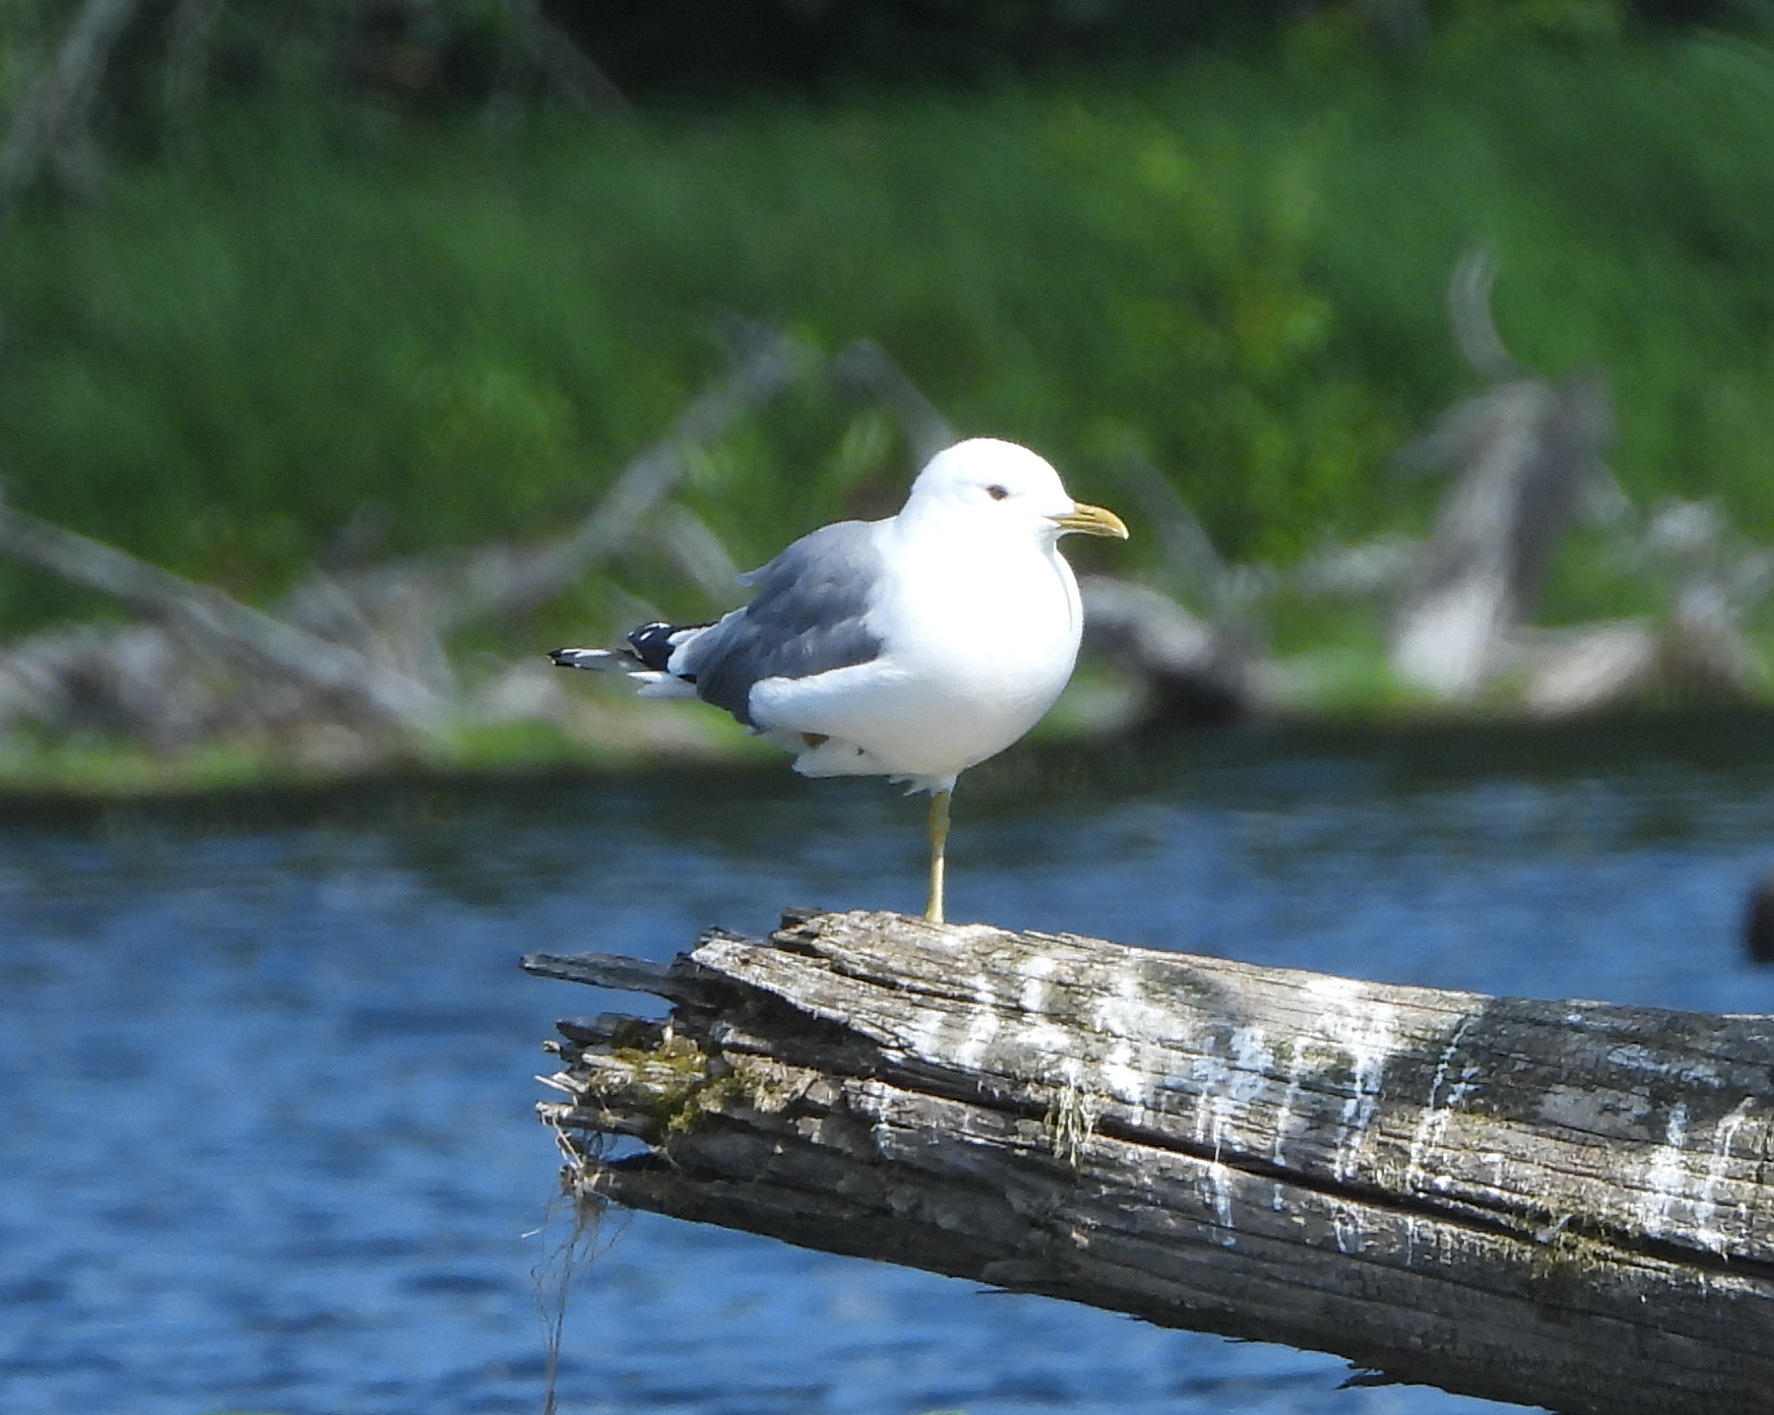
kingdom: Animalia
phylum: Chordata
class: Aves
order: Charadriiformes
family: Laridae
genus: Larus
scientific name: Larus canus
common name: Mew gull
